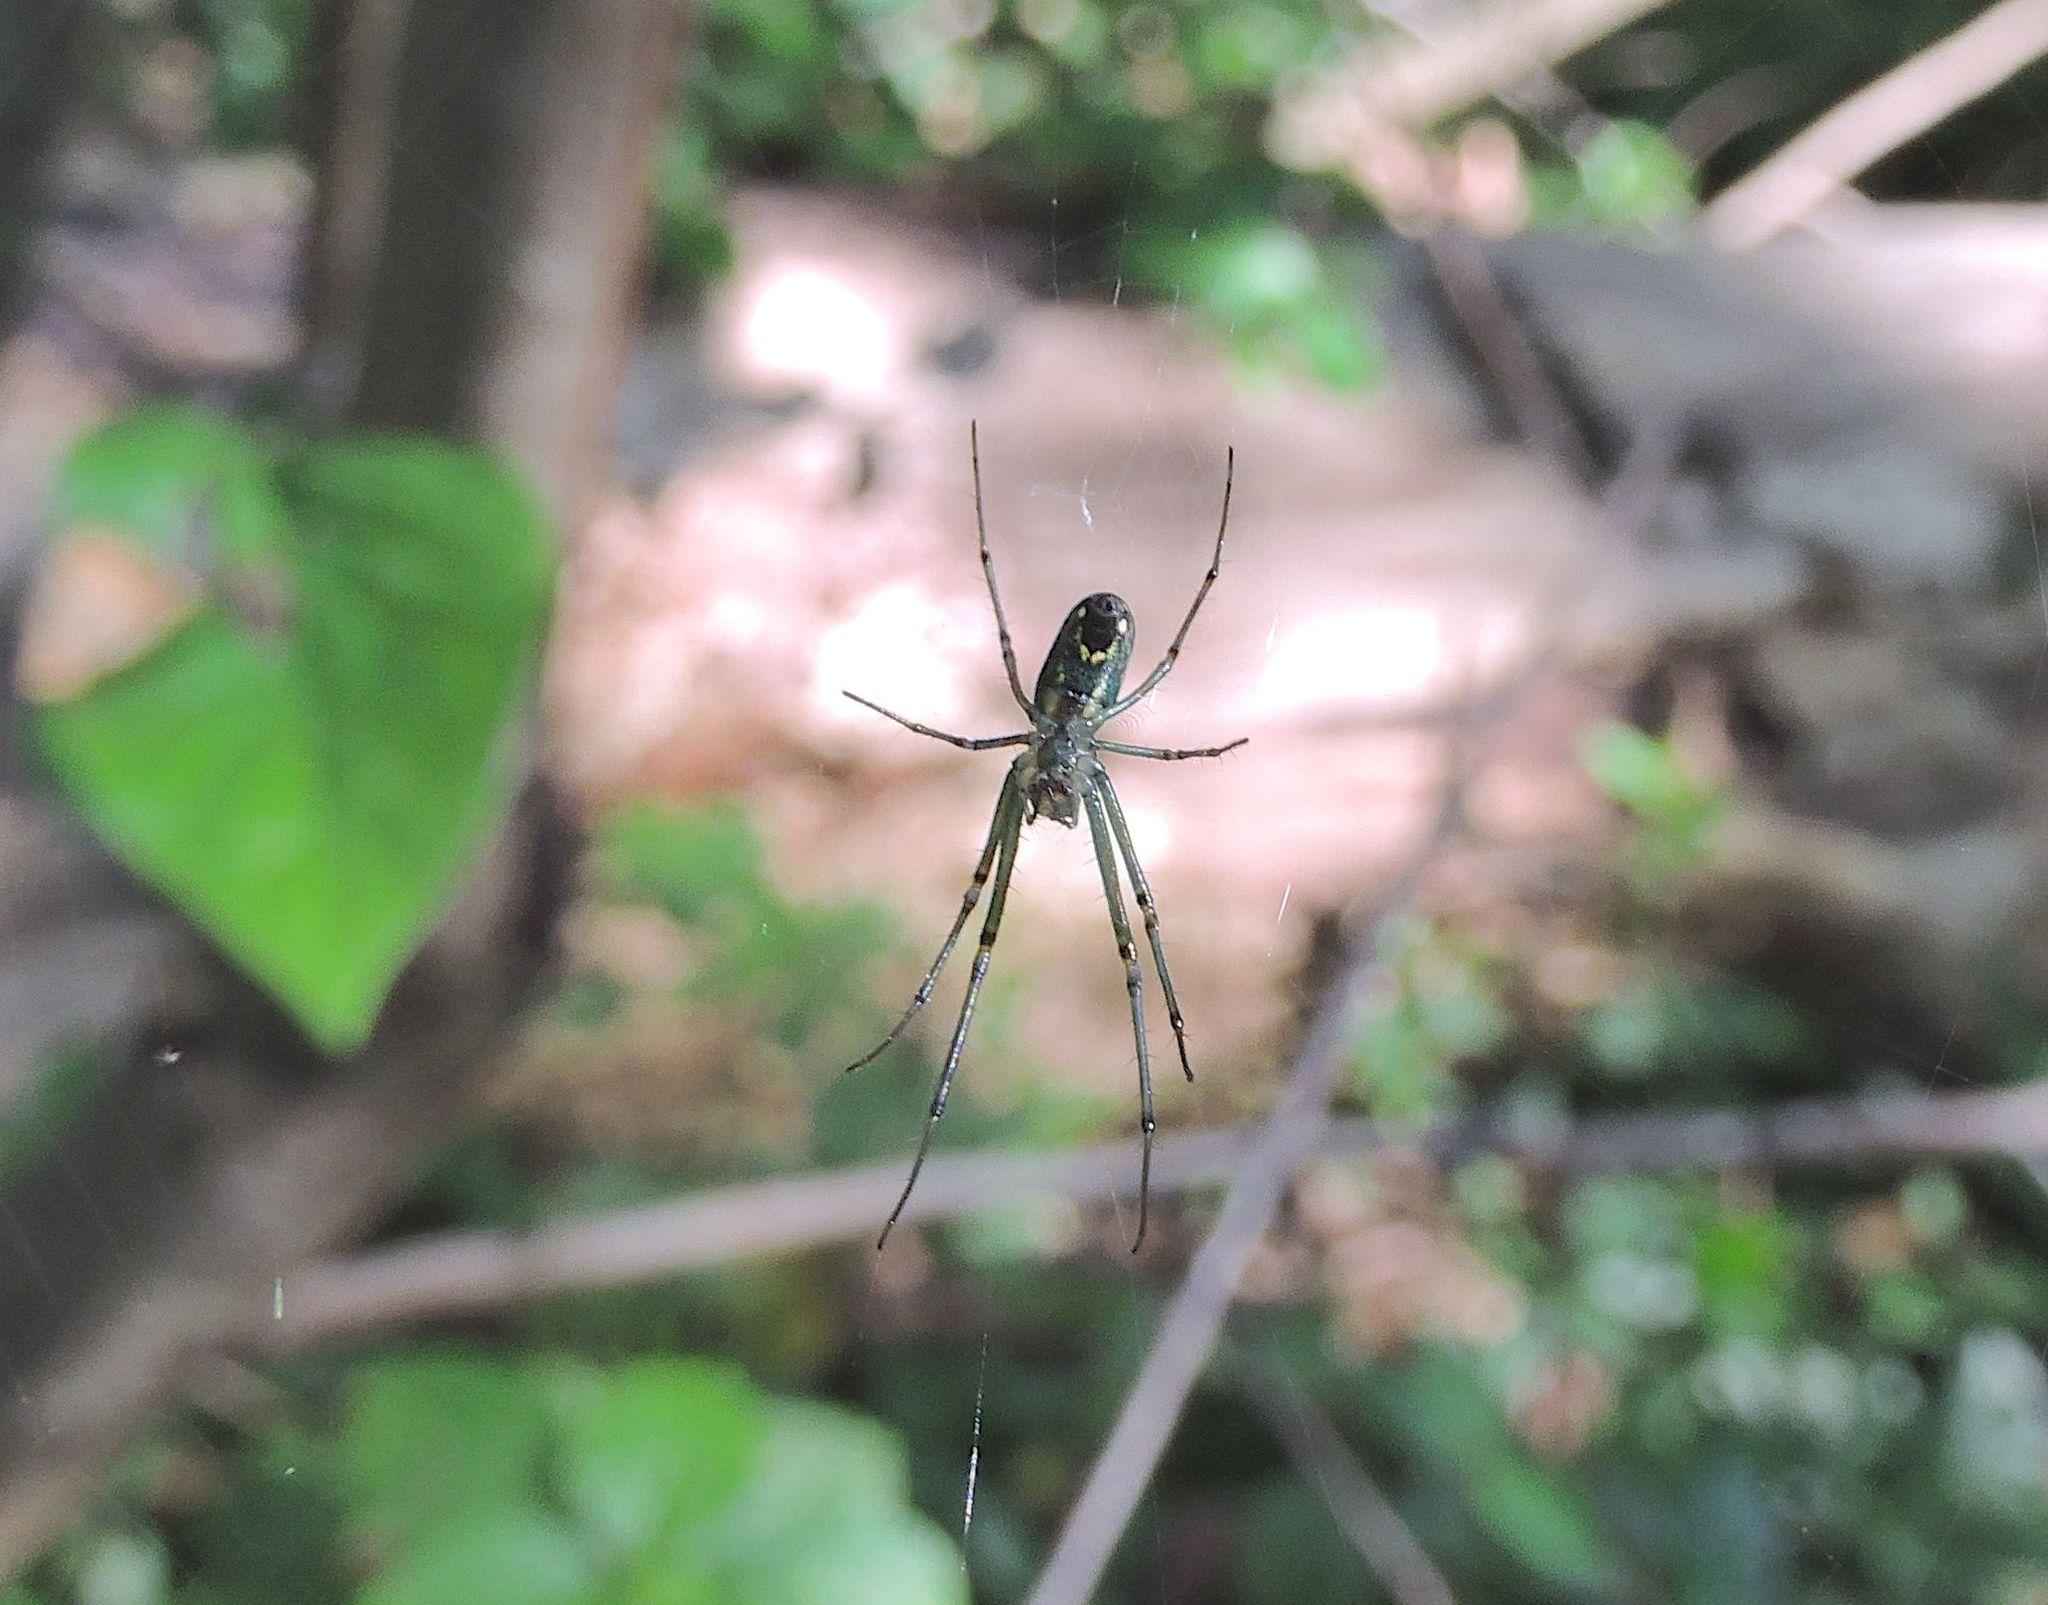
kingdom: Animalia
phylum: Arthropoda
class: Arachnida
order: Araneae
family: Tetragnathidae
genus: Leucauge
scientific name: Leucauge venusta
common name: Longjawed orb weavers
